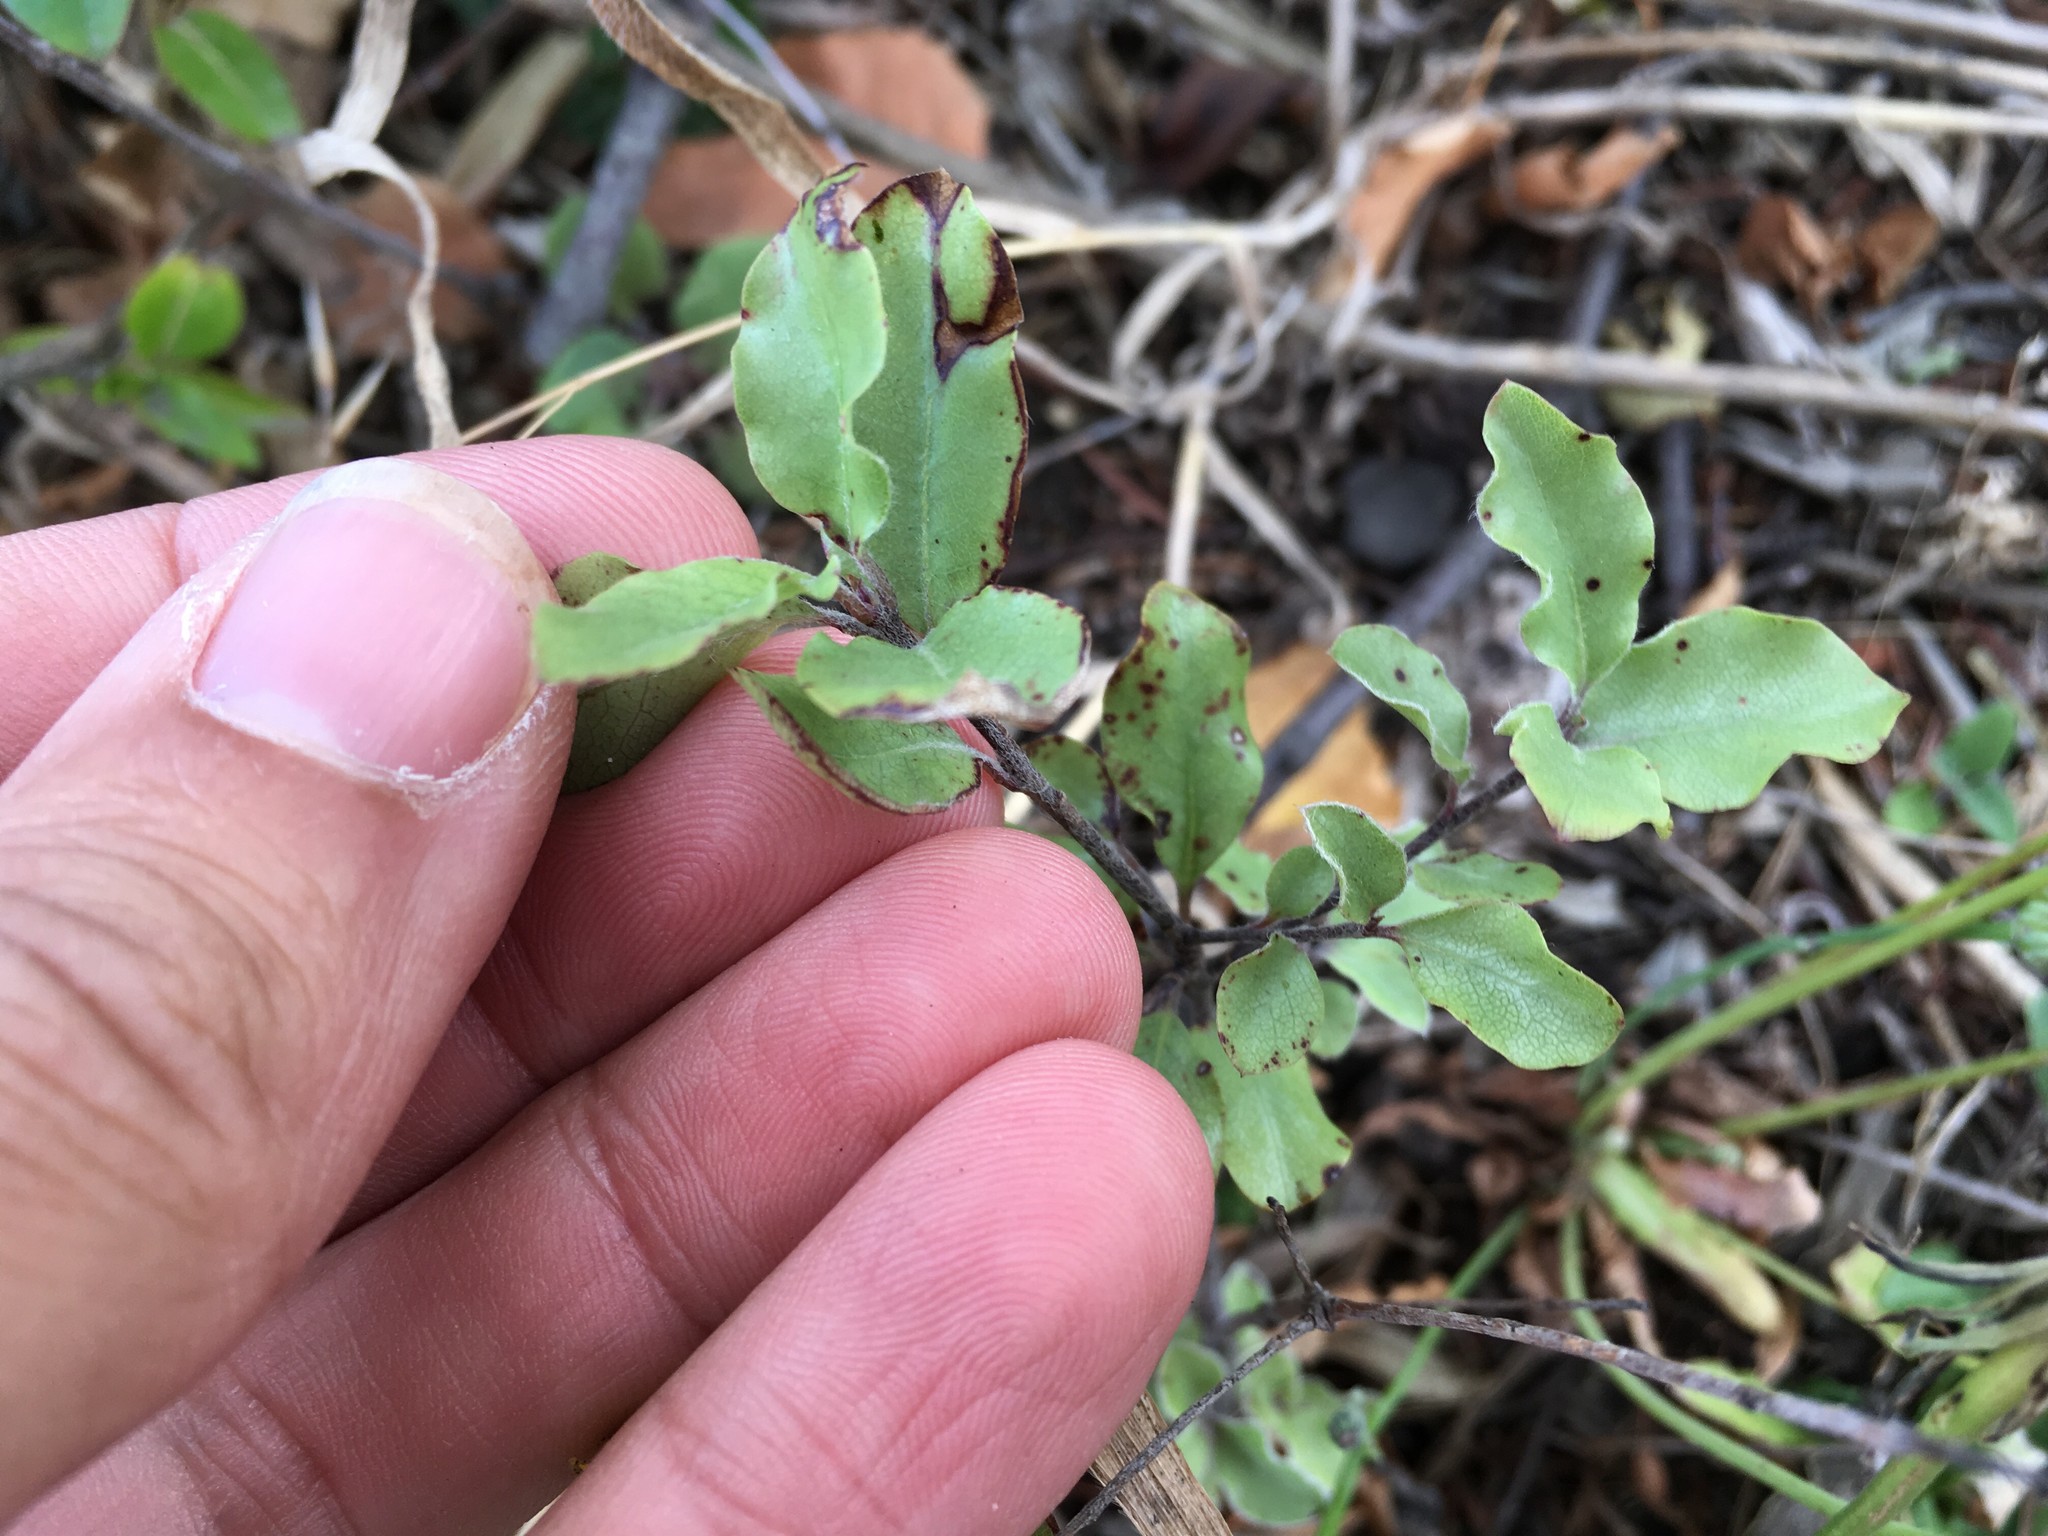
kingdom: Plantae
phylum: Tracheophyta
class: Magnoliopsida
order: Apiales
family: Pittosporaceae
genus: Pittosporum
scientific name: Pittosporum tenuifolium
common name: Kohuhu
